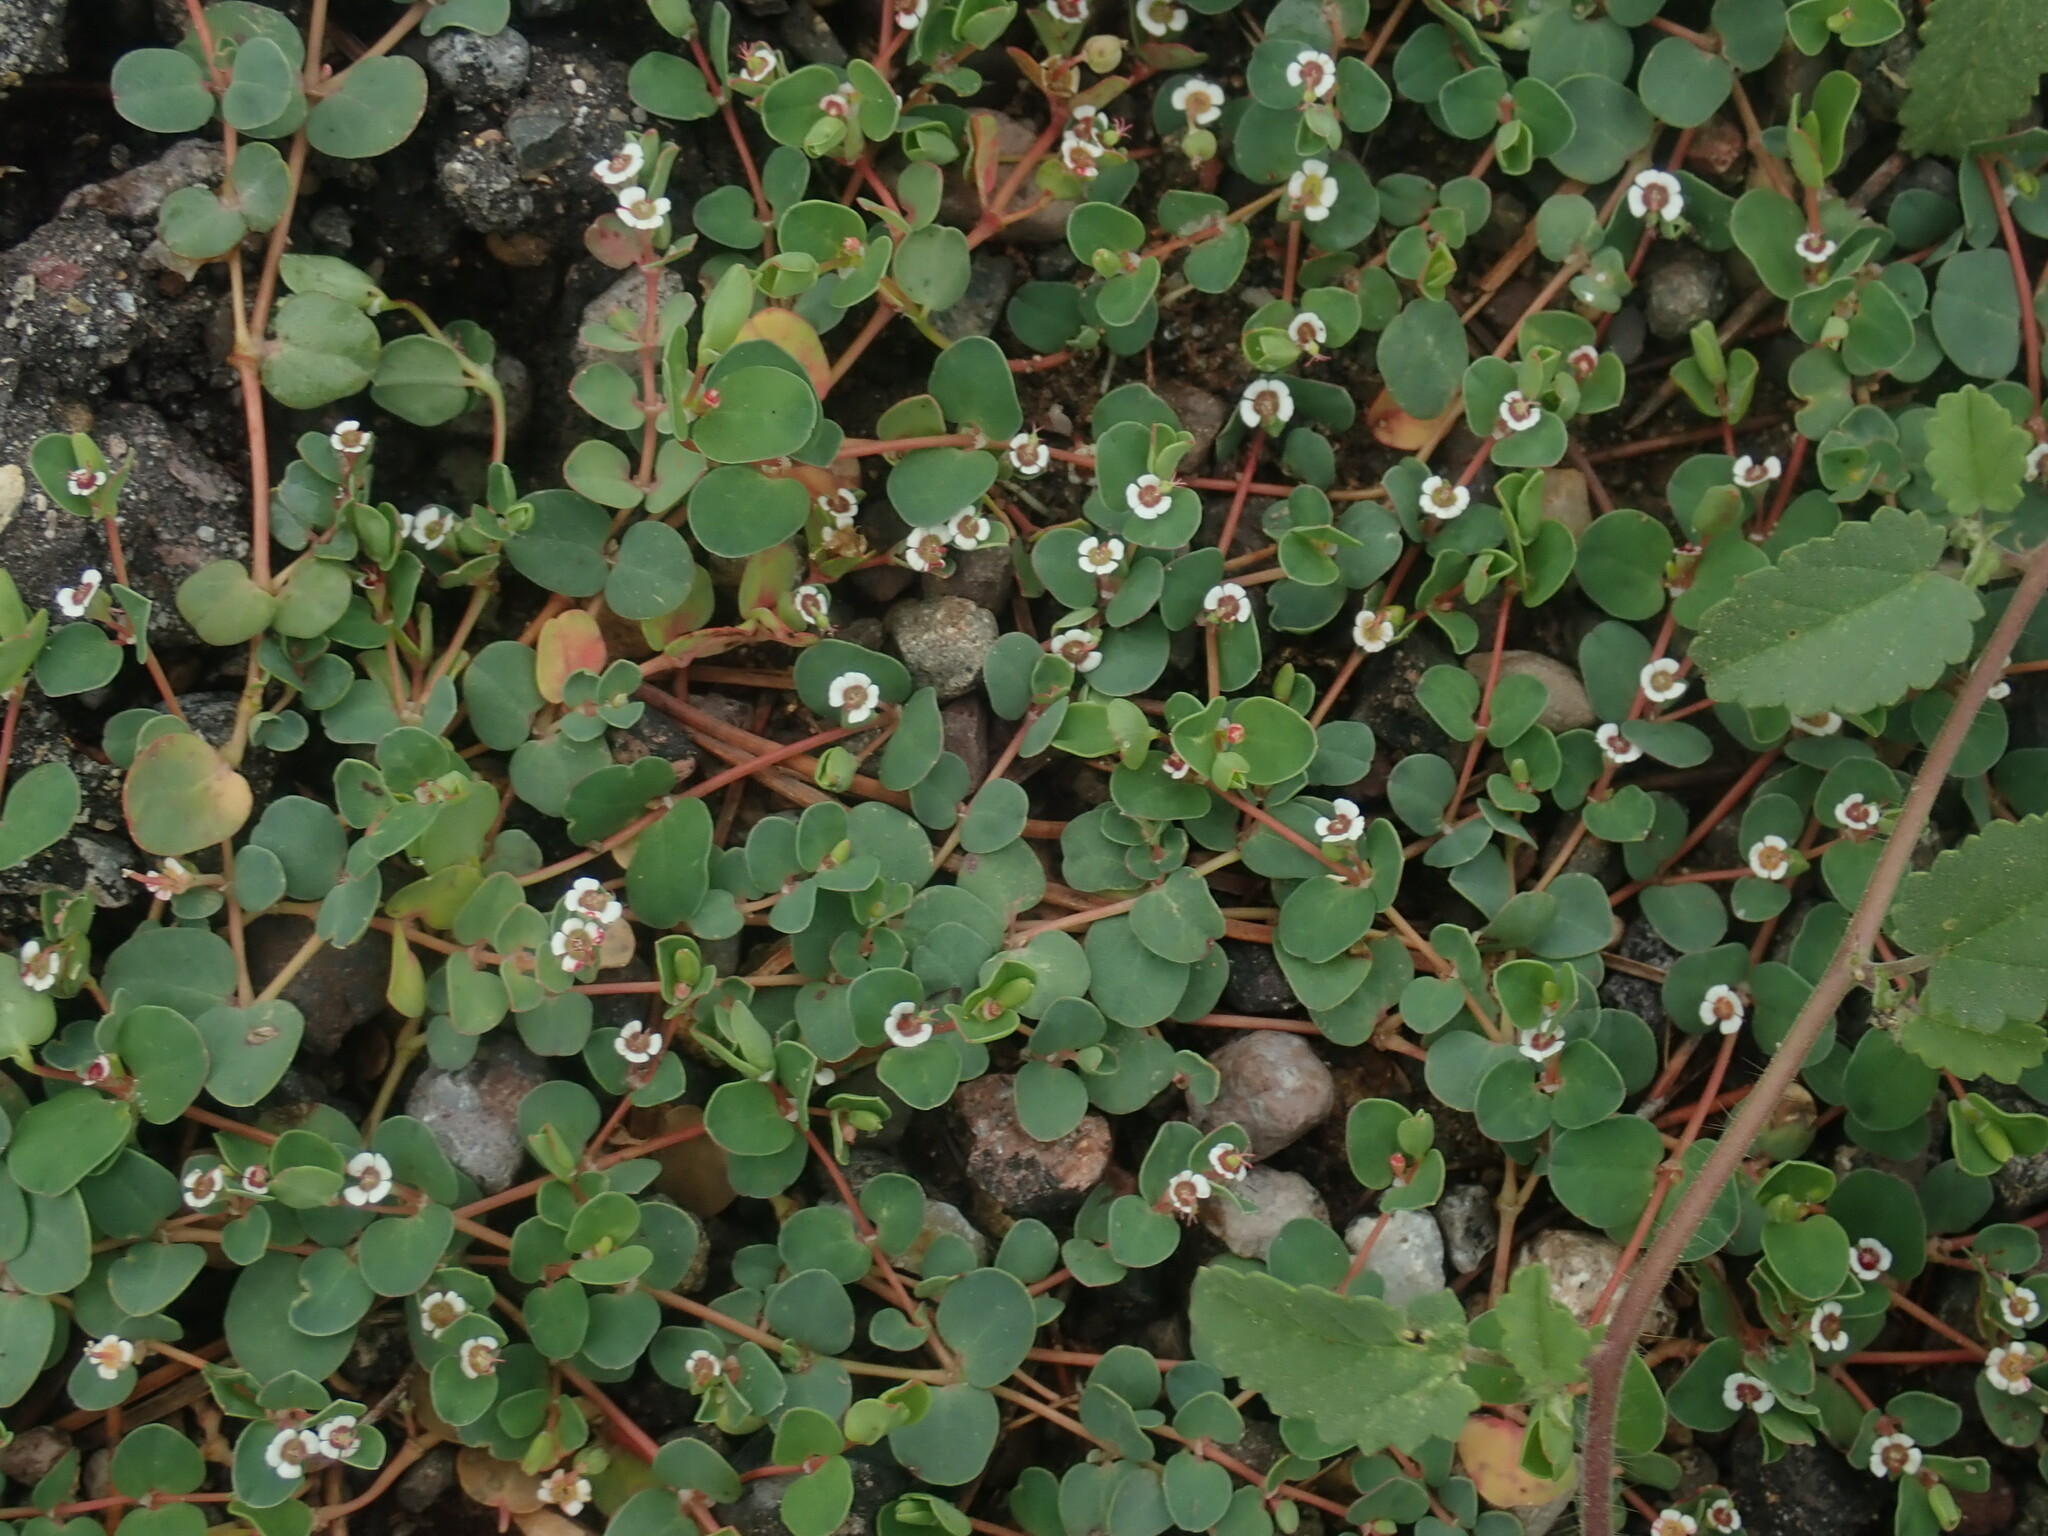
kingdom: Plantae
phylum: Tracheophyta
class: Magnoliopsida
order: Malpighiales
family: Euphorbiaceae
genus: Euphorbia
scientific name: Euphorbia albomarginata
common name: Whitemargin sandmat
